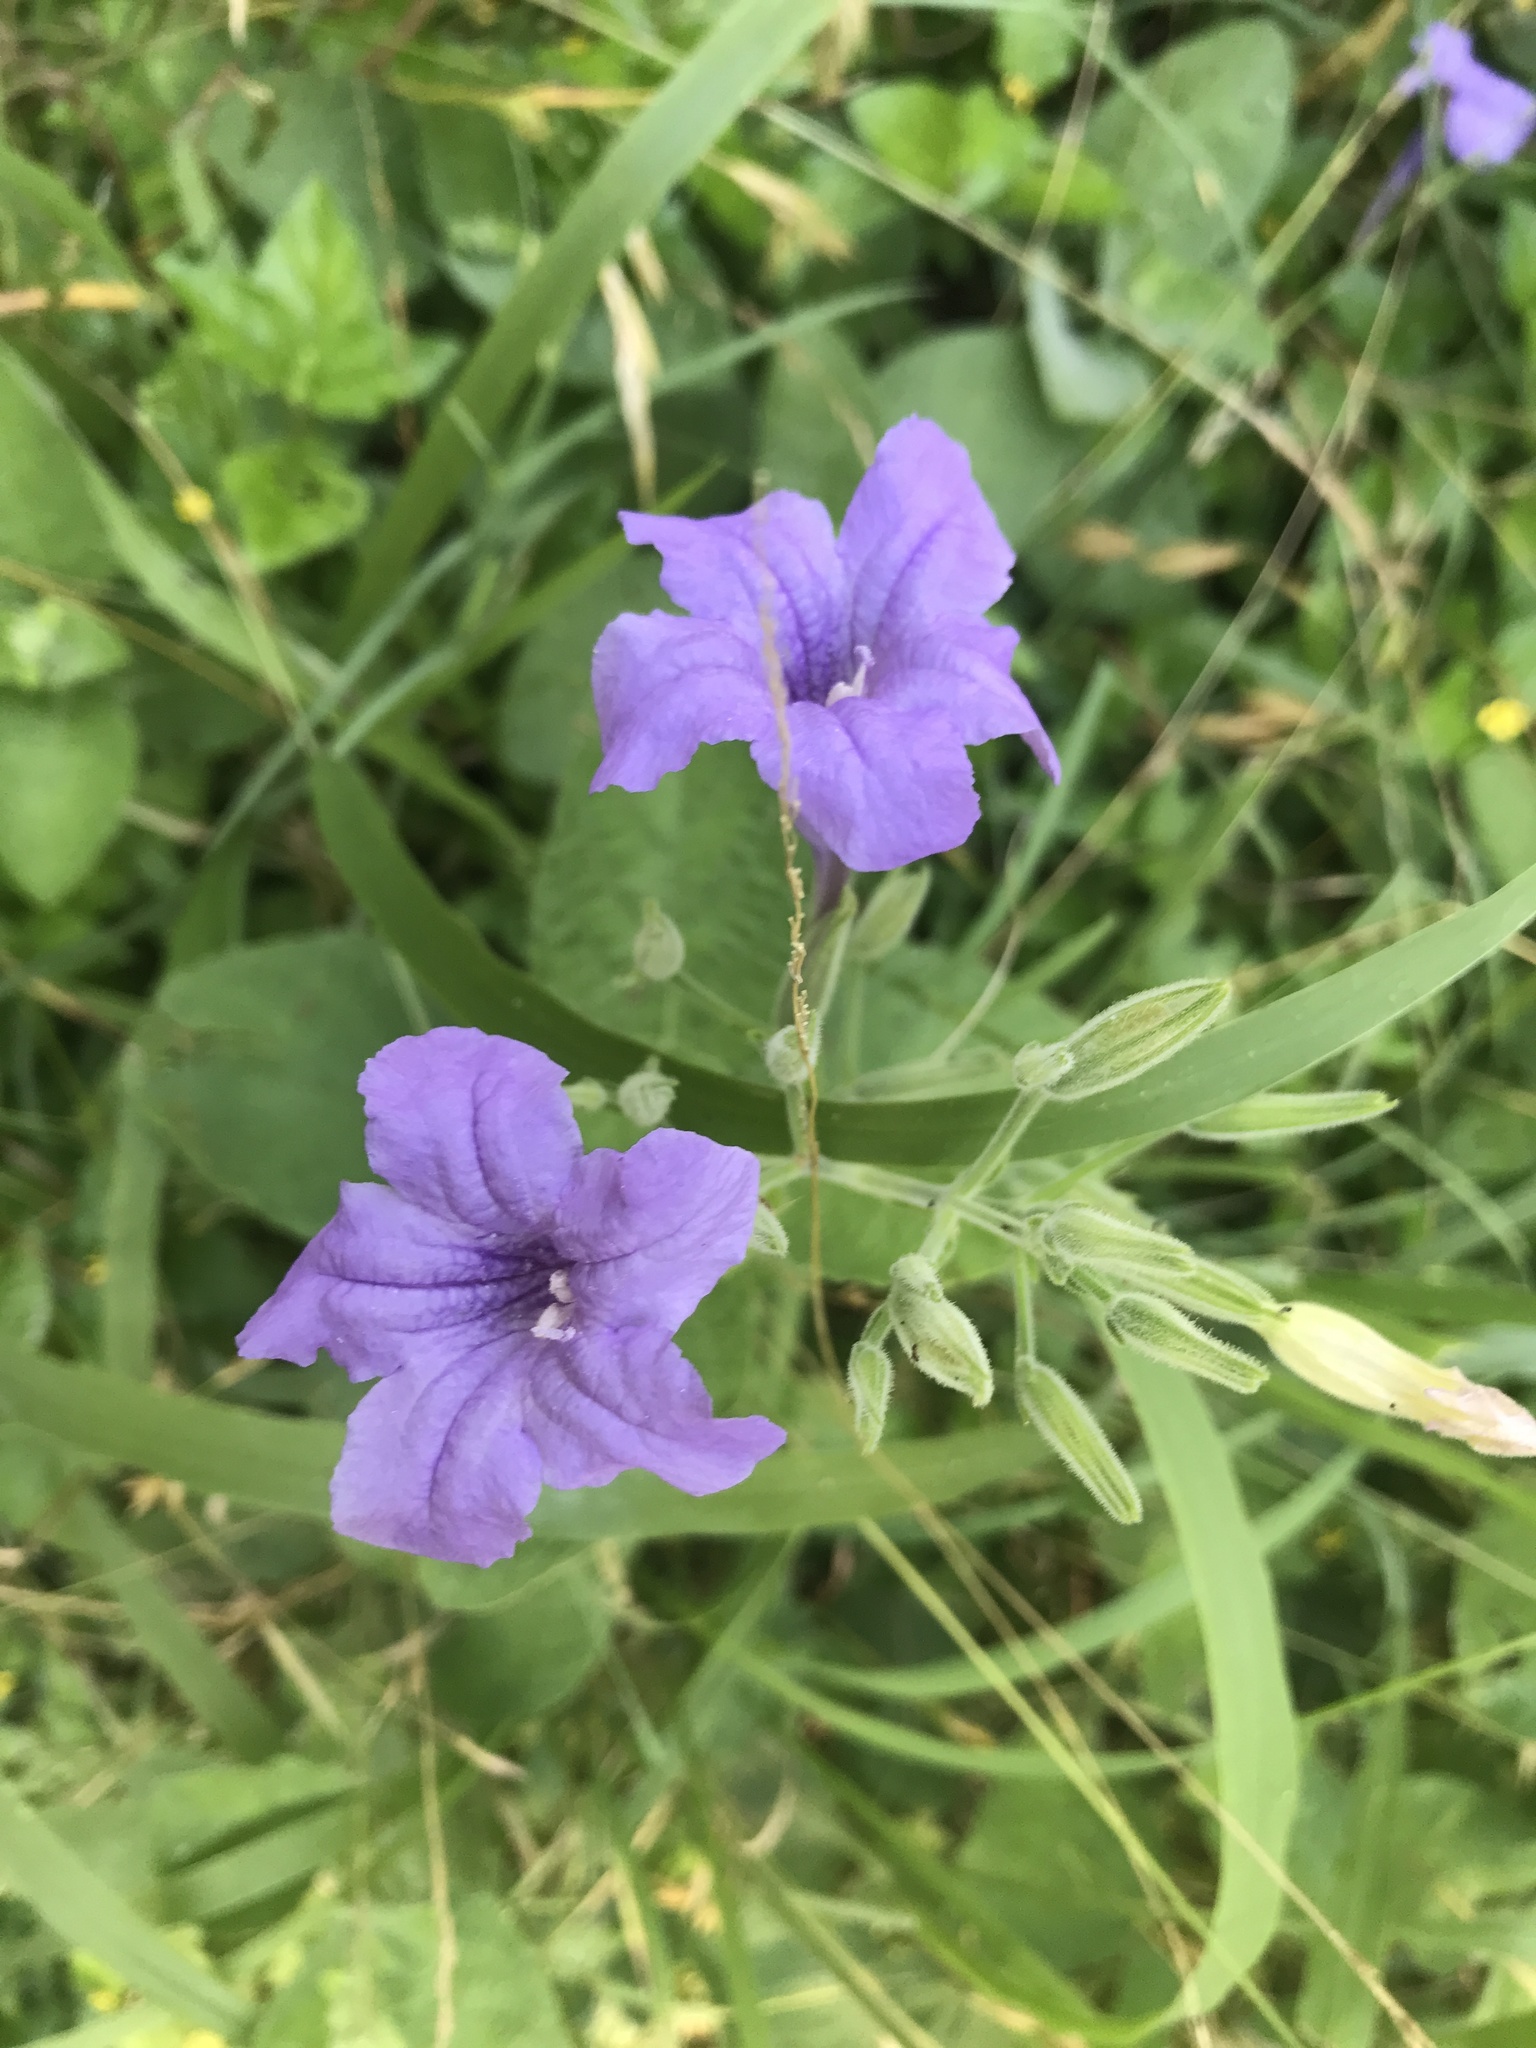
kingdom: Plantae
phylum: Tracheophyta
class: Magnoliopsida
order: Lamiales
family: Acanthaceae
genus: Ruellia
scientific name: Ruellia ciliatiflora
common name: Hairyflower wild petunia
